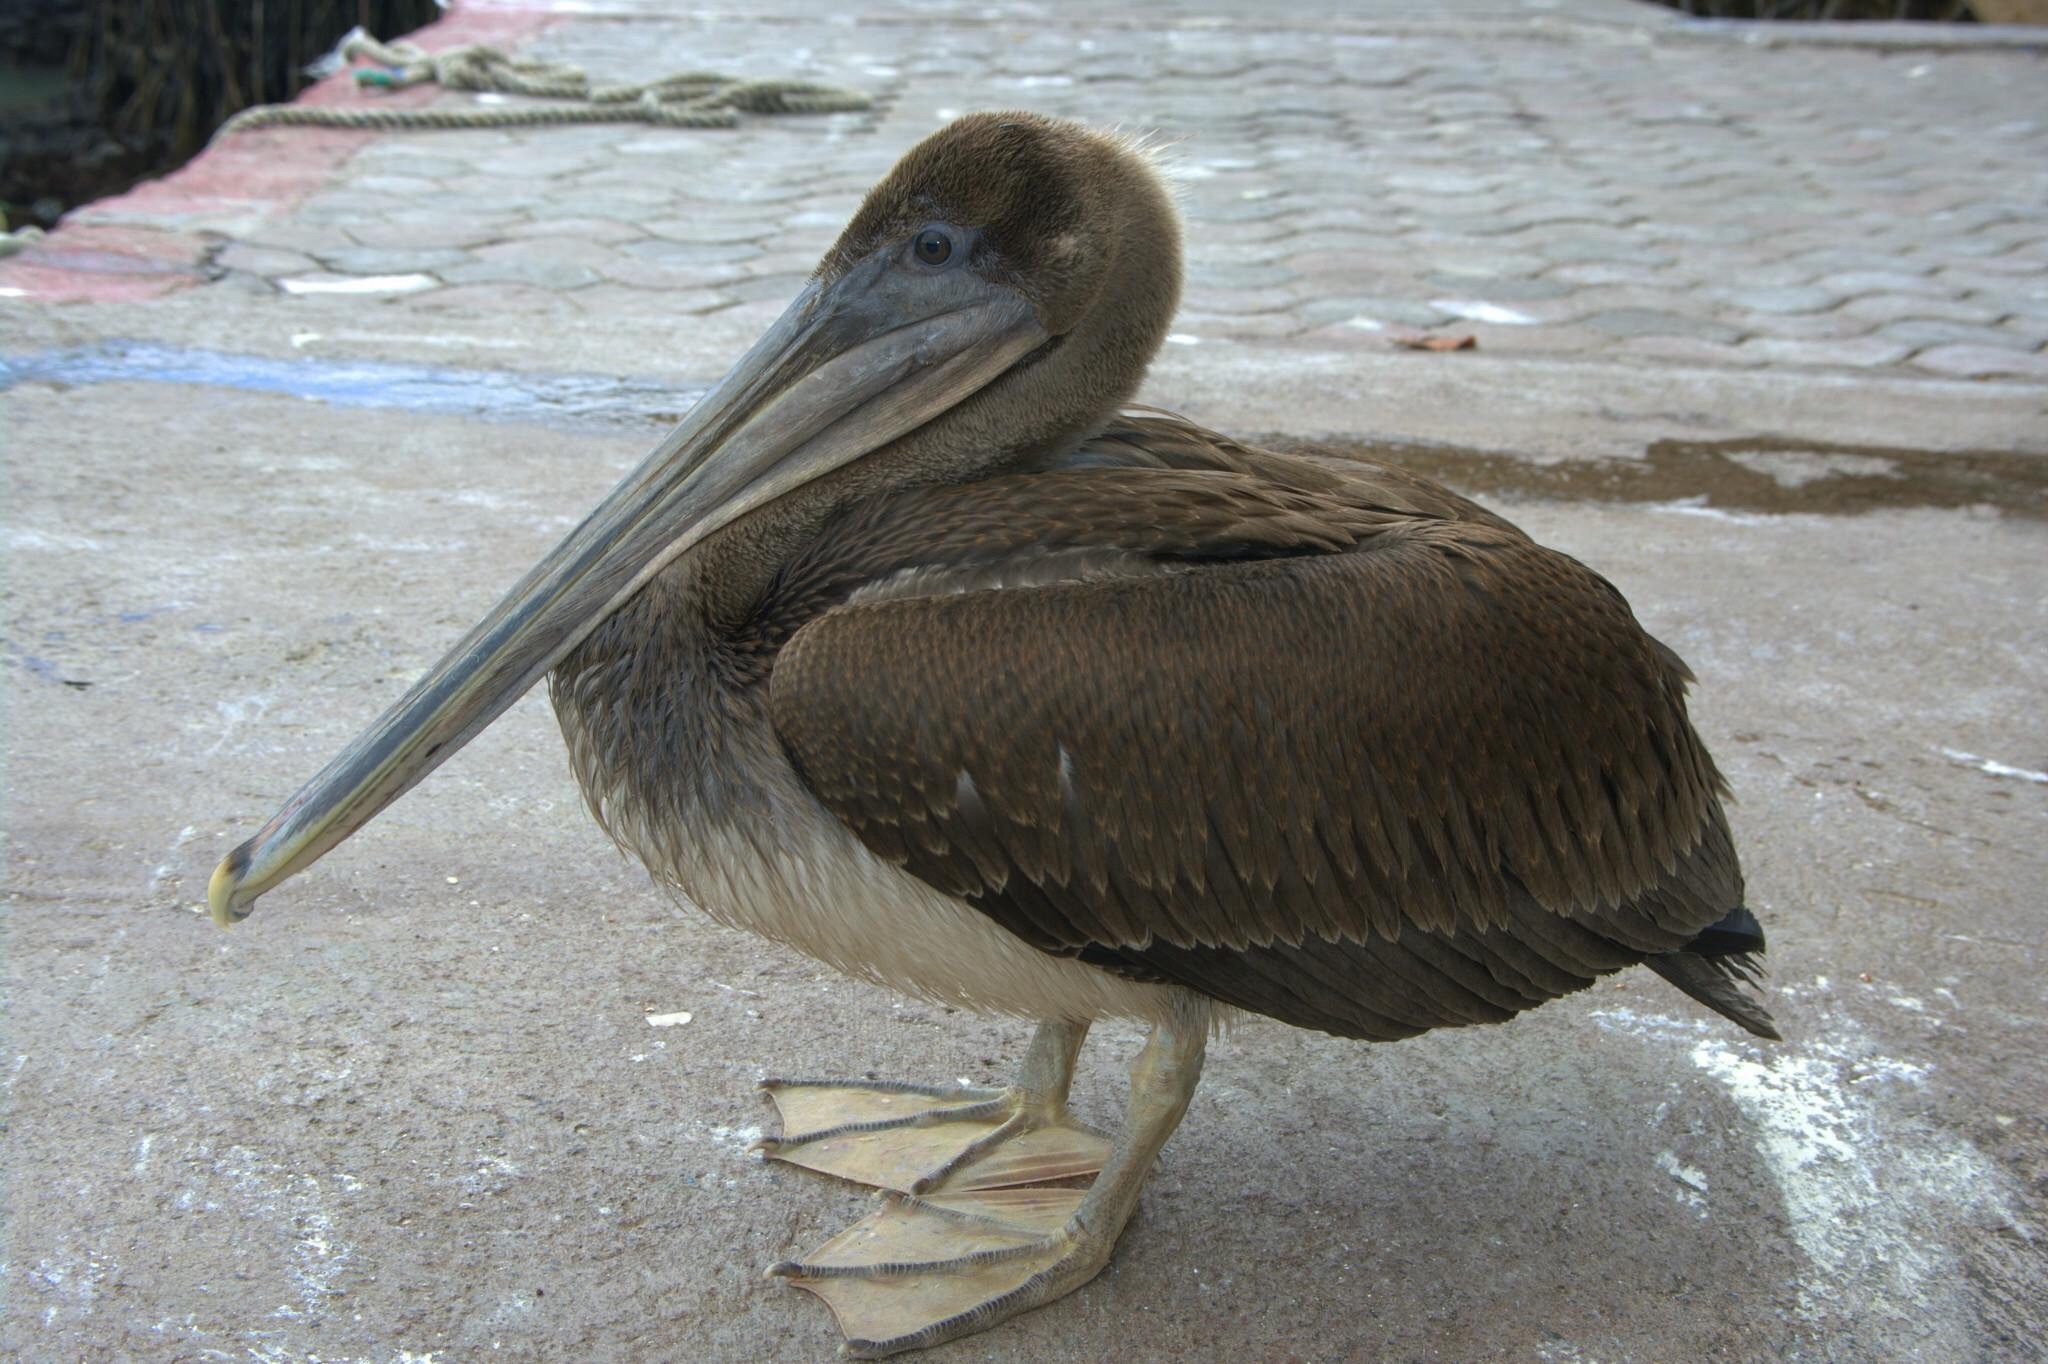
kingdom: Animalia
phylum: Chordata
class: Aves
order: Pelecaniformes
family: Pelecanidae
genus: Pelecanus
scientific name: Pelecanus occidentalis
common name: Brown pelican
